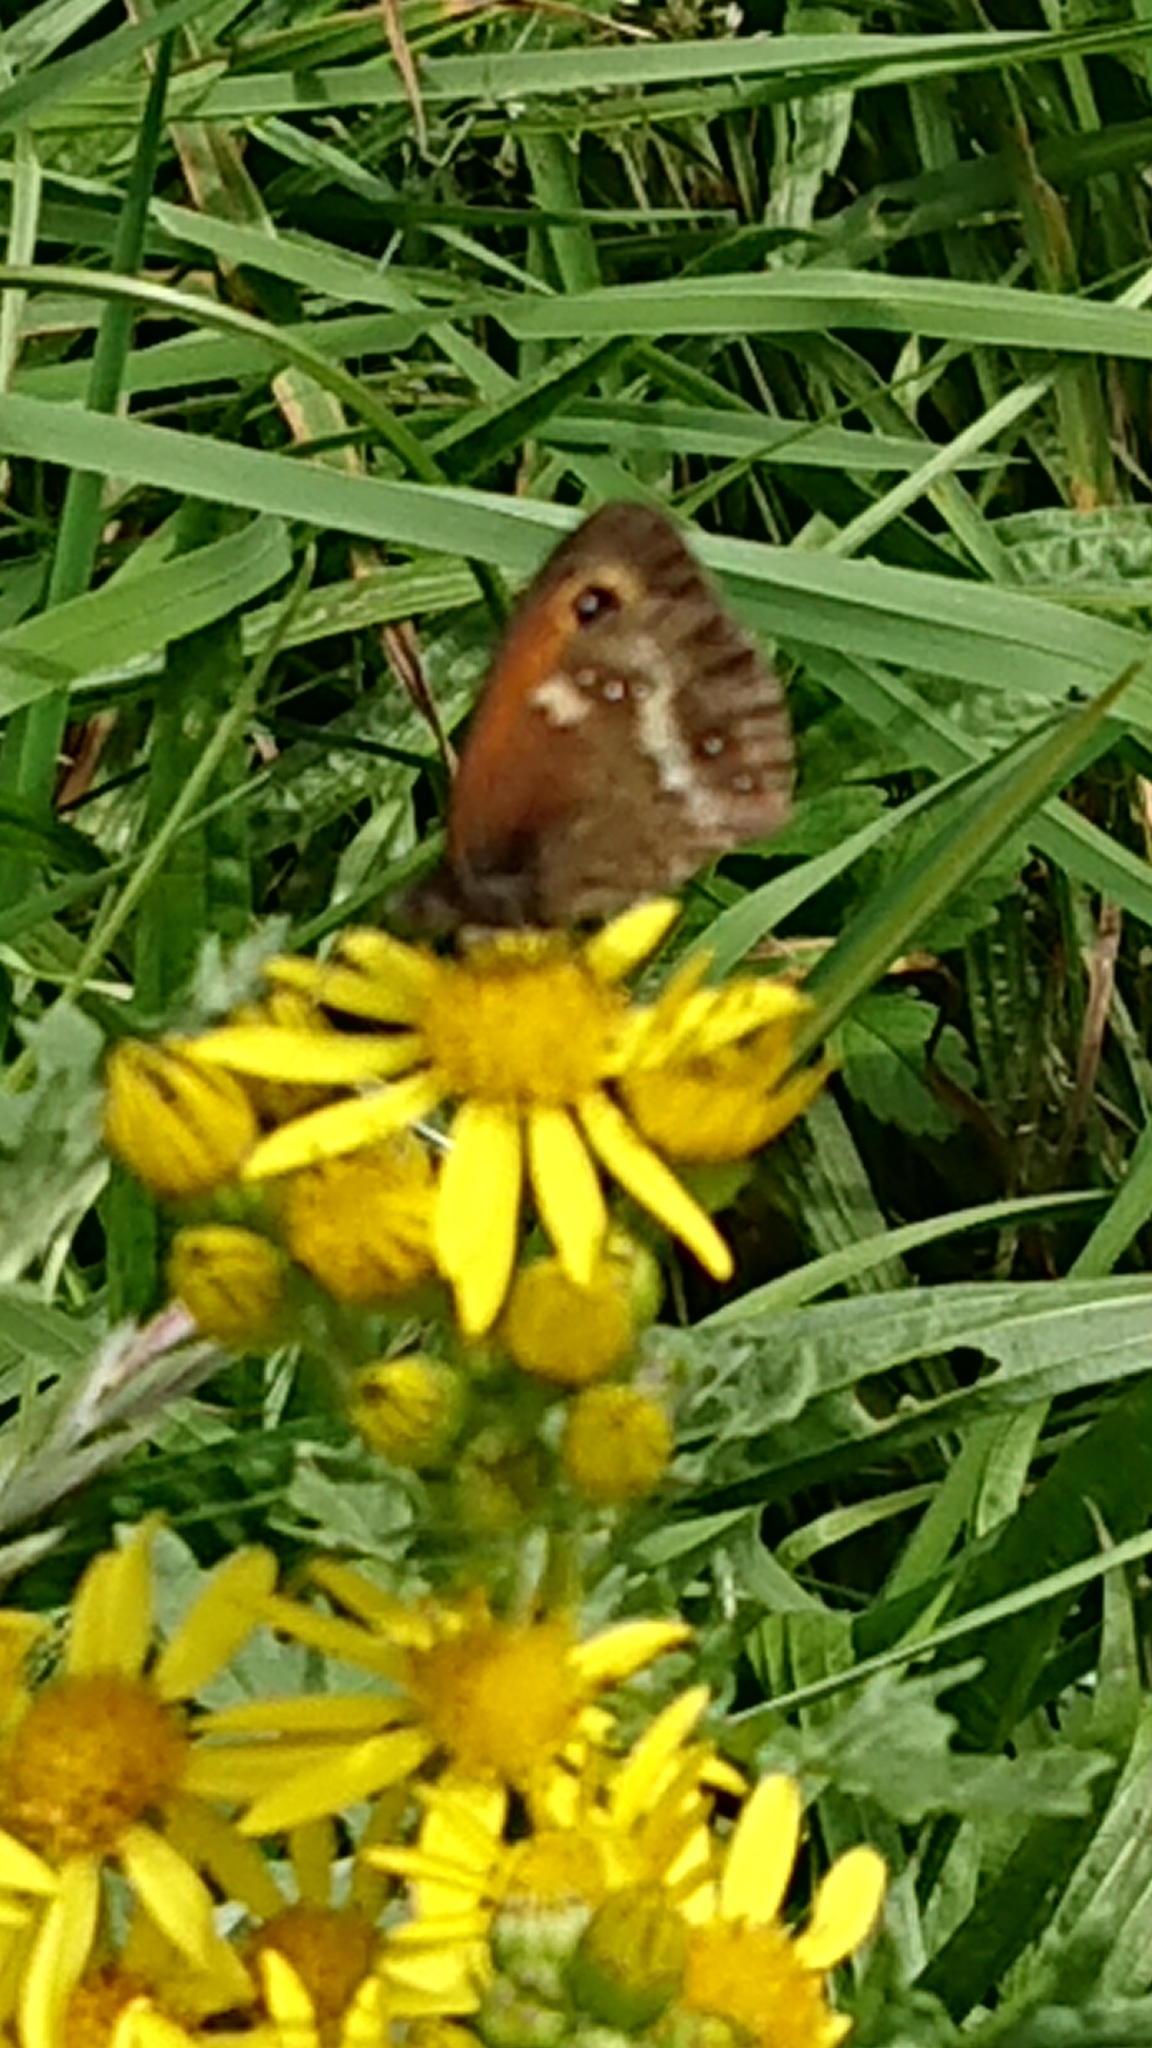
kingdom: Animalia
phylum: Arthropoda
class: Insecta
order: Lepidoptera
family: Nymphalidae
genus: Pyronia
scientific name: Pyronia tithonus
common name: Gatekeeper
